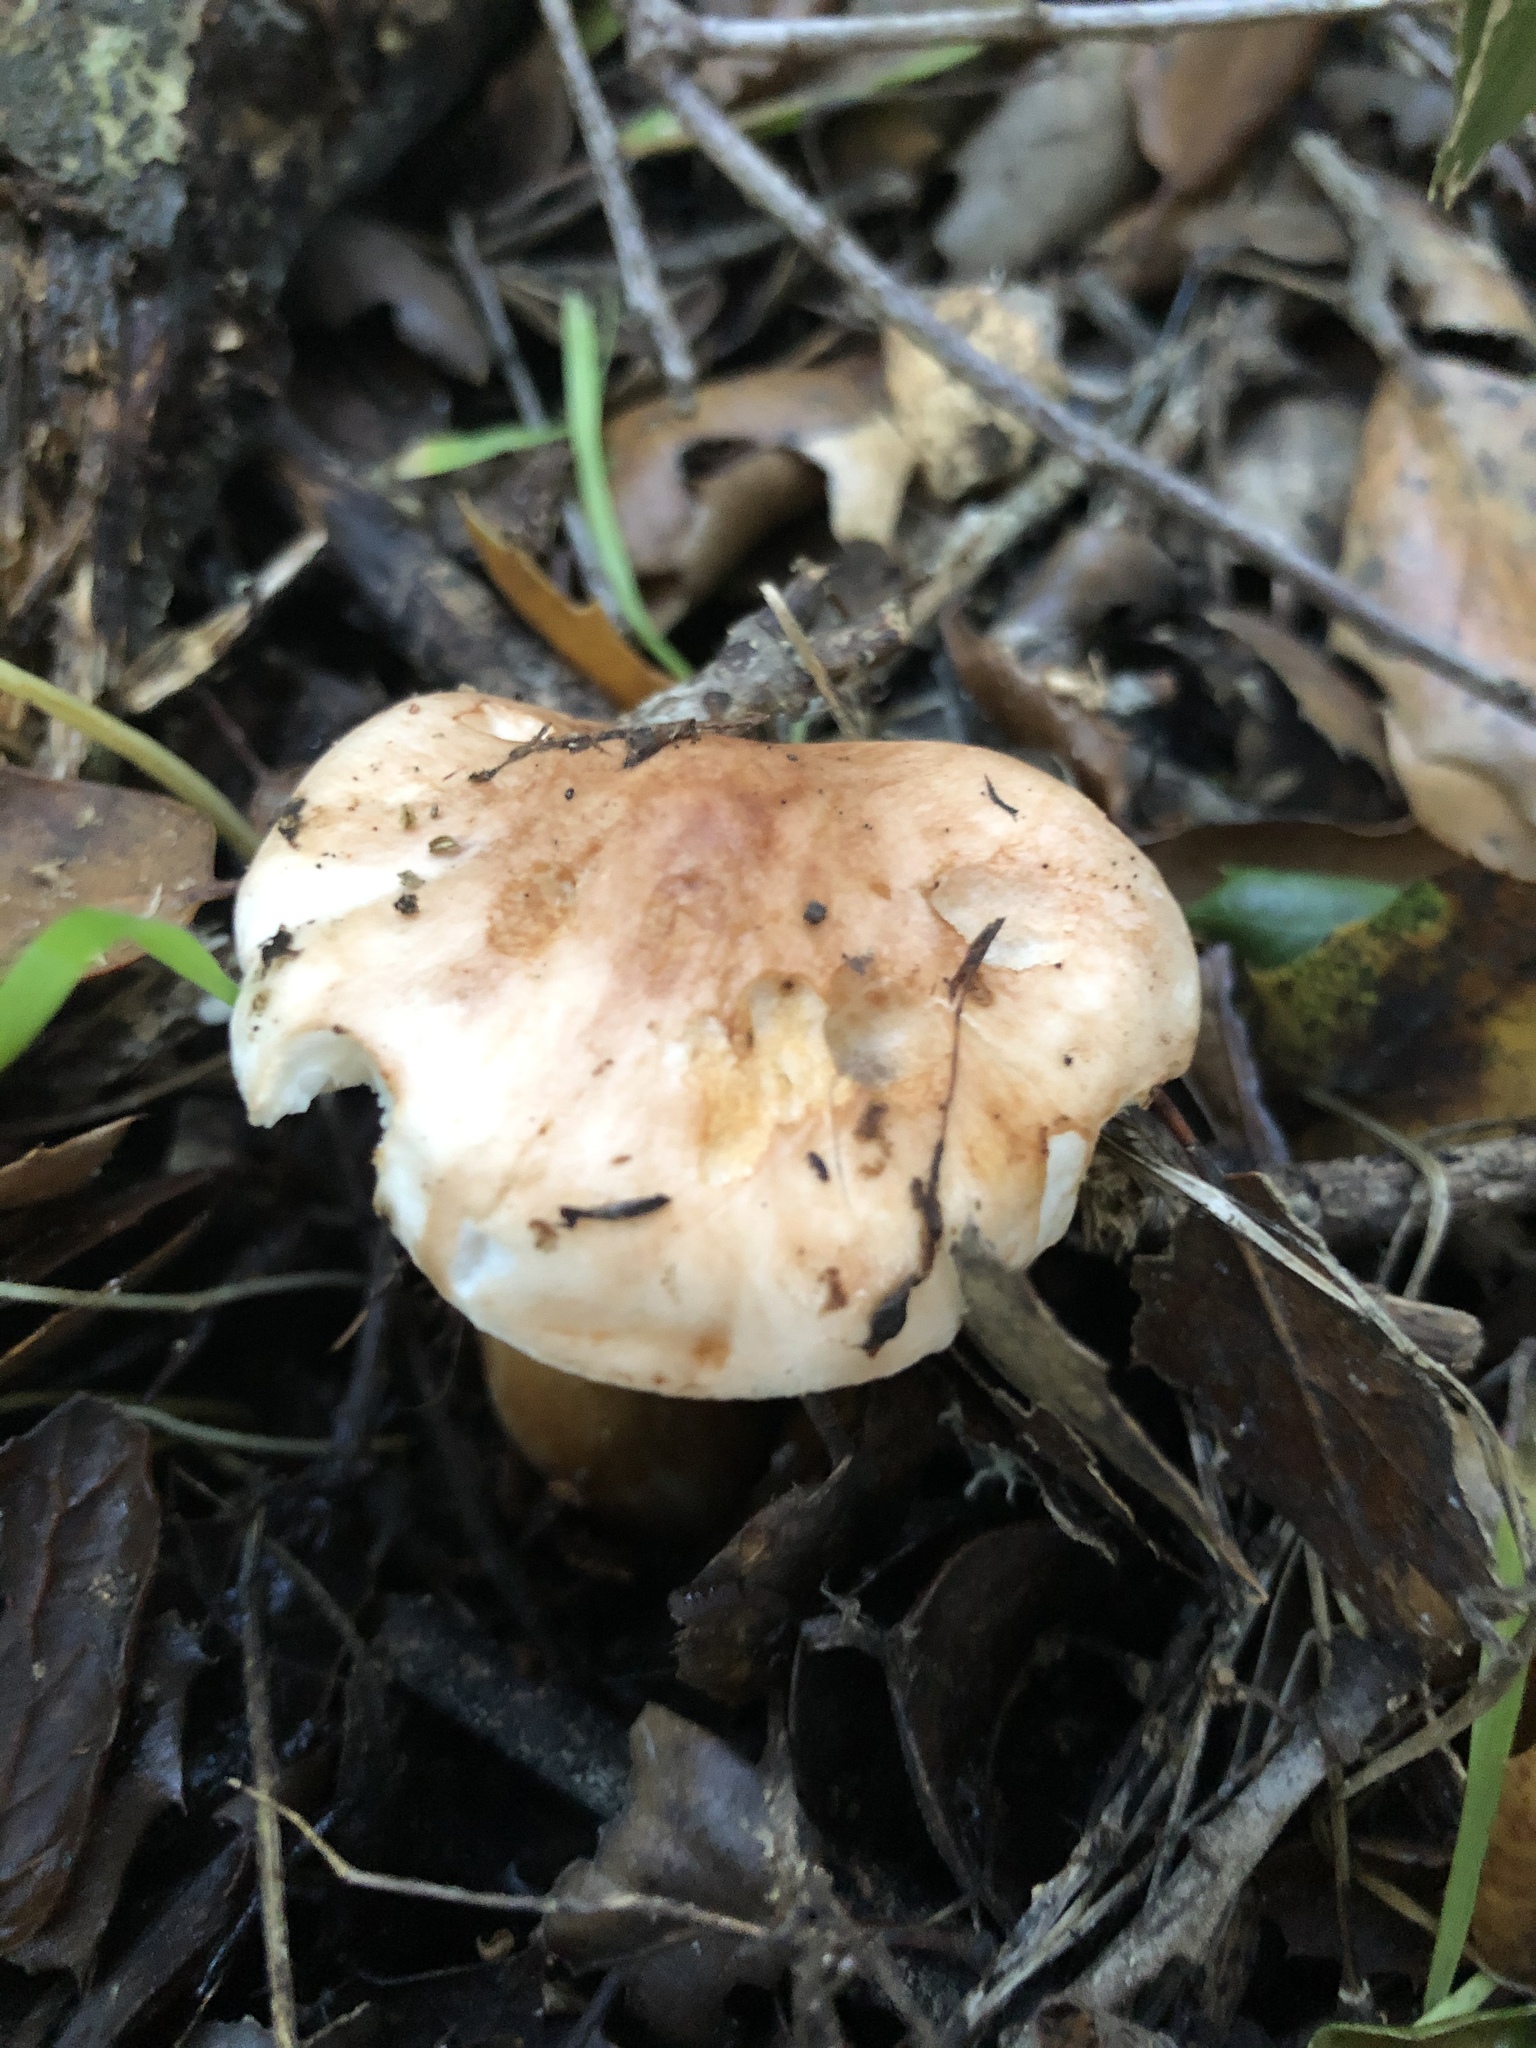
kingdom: Fungi
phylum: Basidiomycota
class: Agaricomycetes
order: Agaricales
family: Tricholomataceae
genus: Melanoleuca
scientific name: Melanoleuca dryophila
